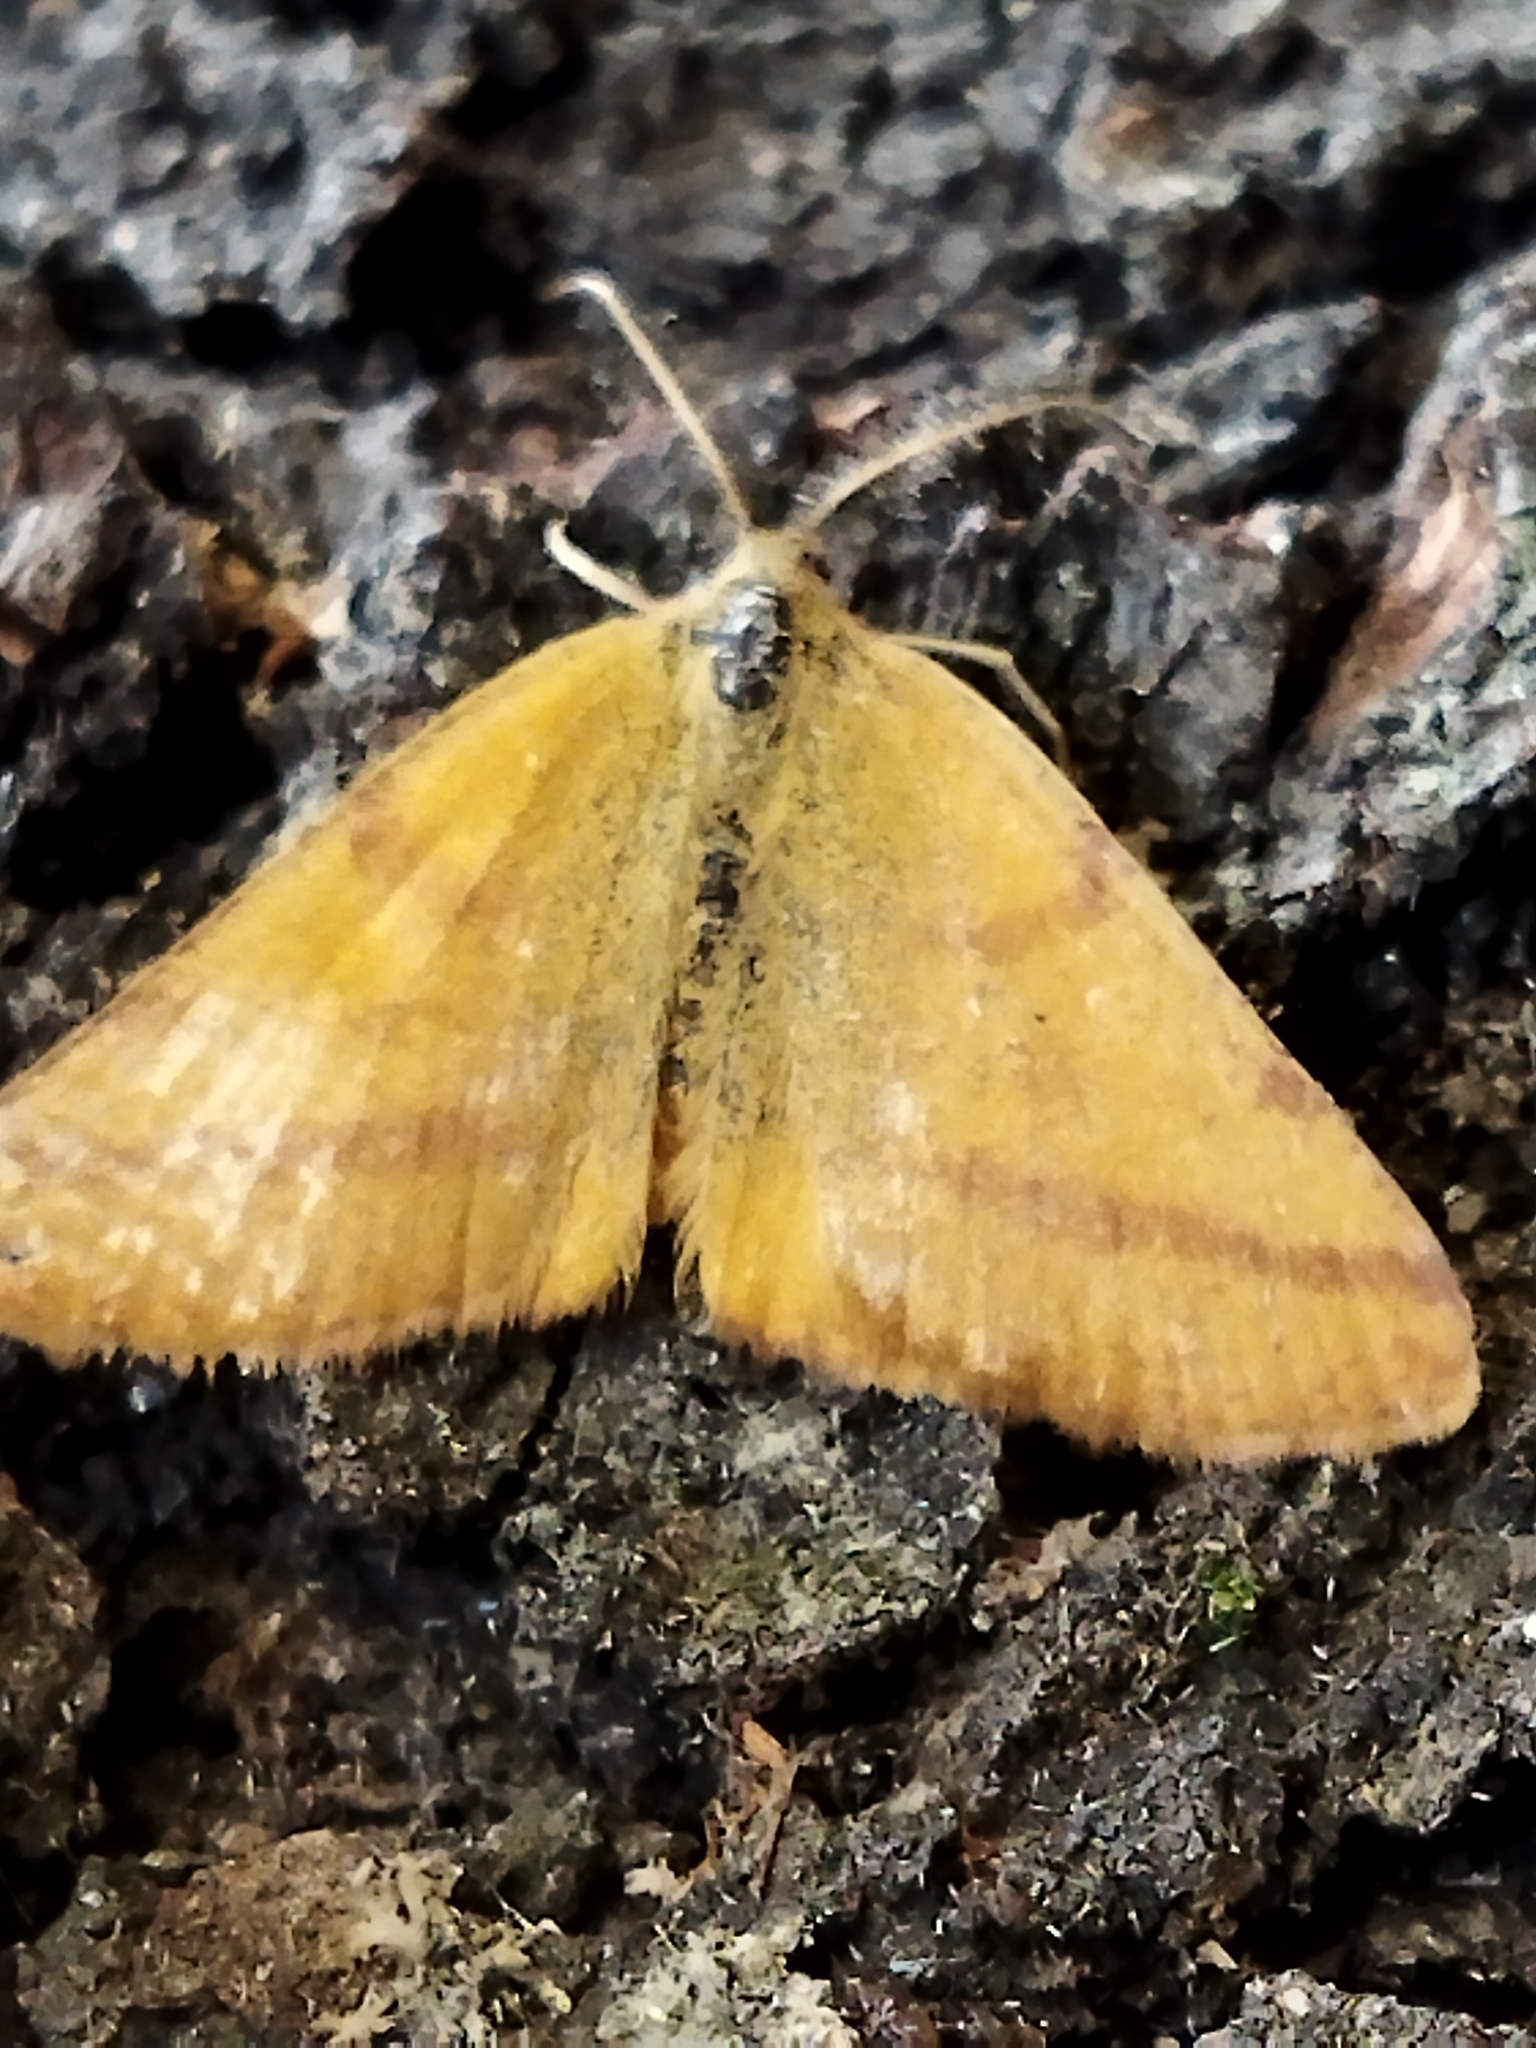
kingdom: Animalia
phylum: Arthropoda
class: Insecta
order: Lepidoptera
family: Geometridae
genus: Lythria
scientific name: Lythria purpuraria
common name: Purple-barred yellow
